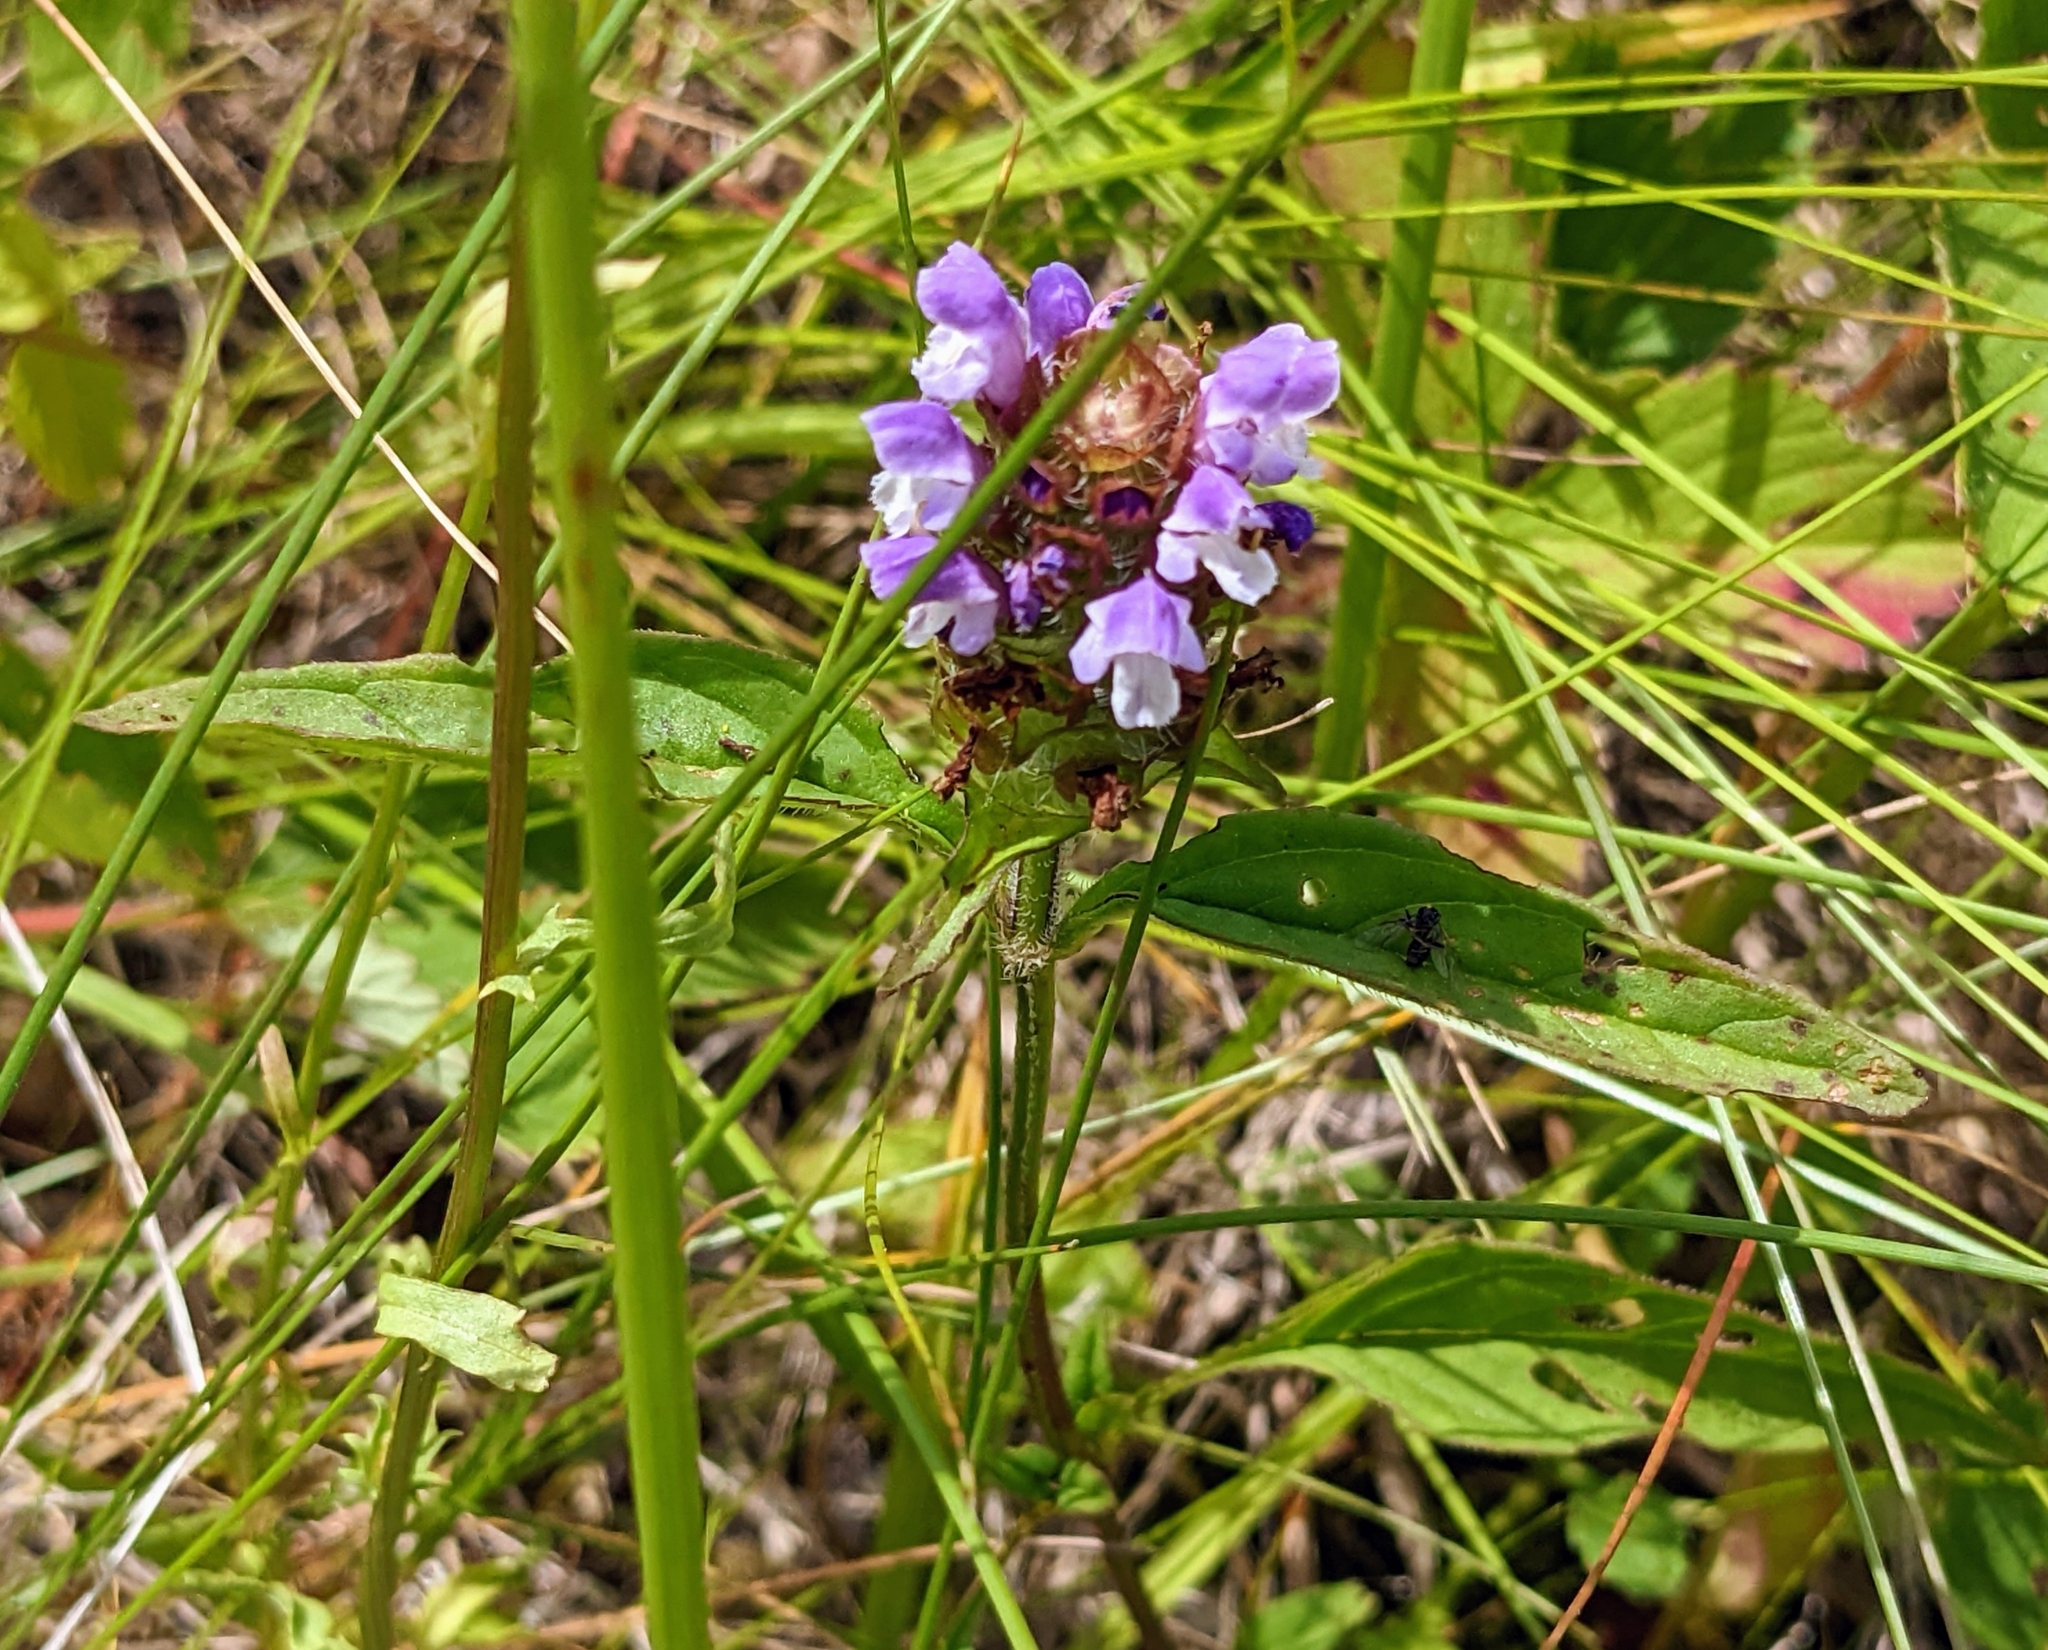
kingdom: Plantae
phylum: Tracheophyta
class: Magnoliopsida
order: Lamiales
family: Lamiaceae
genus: Prunella
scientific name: Prunella vulgaris
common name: Heal-all
